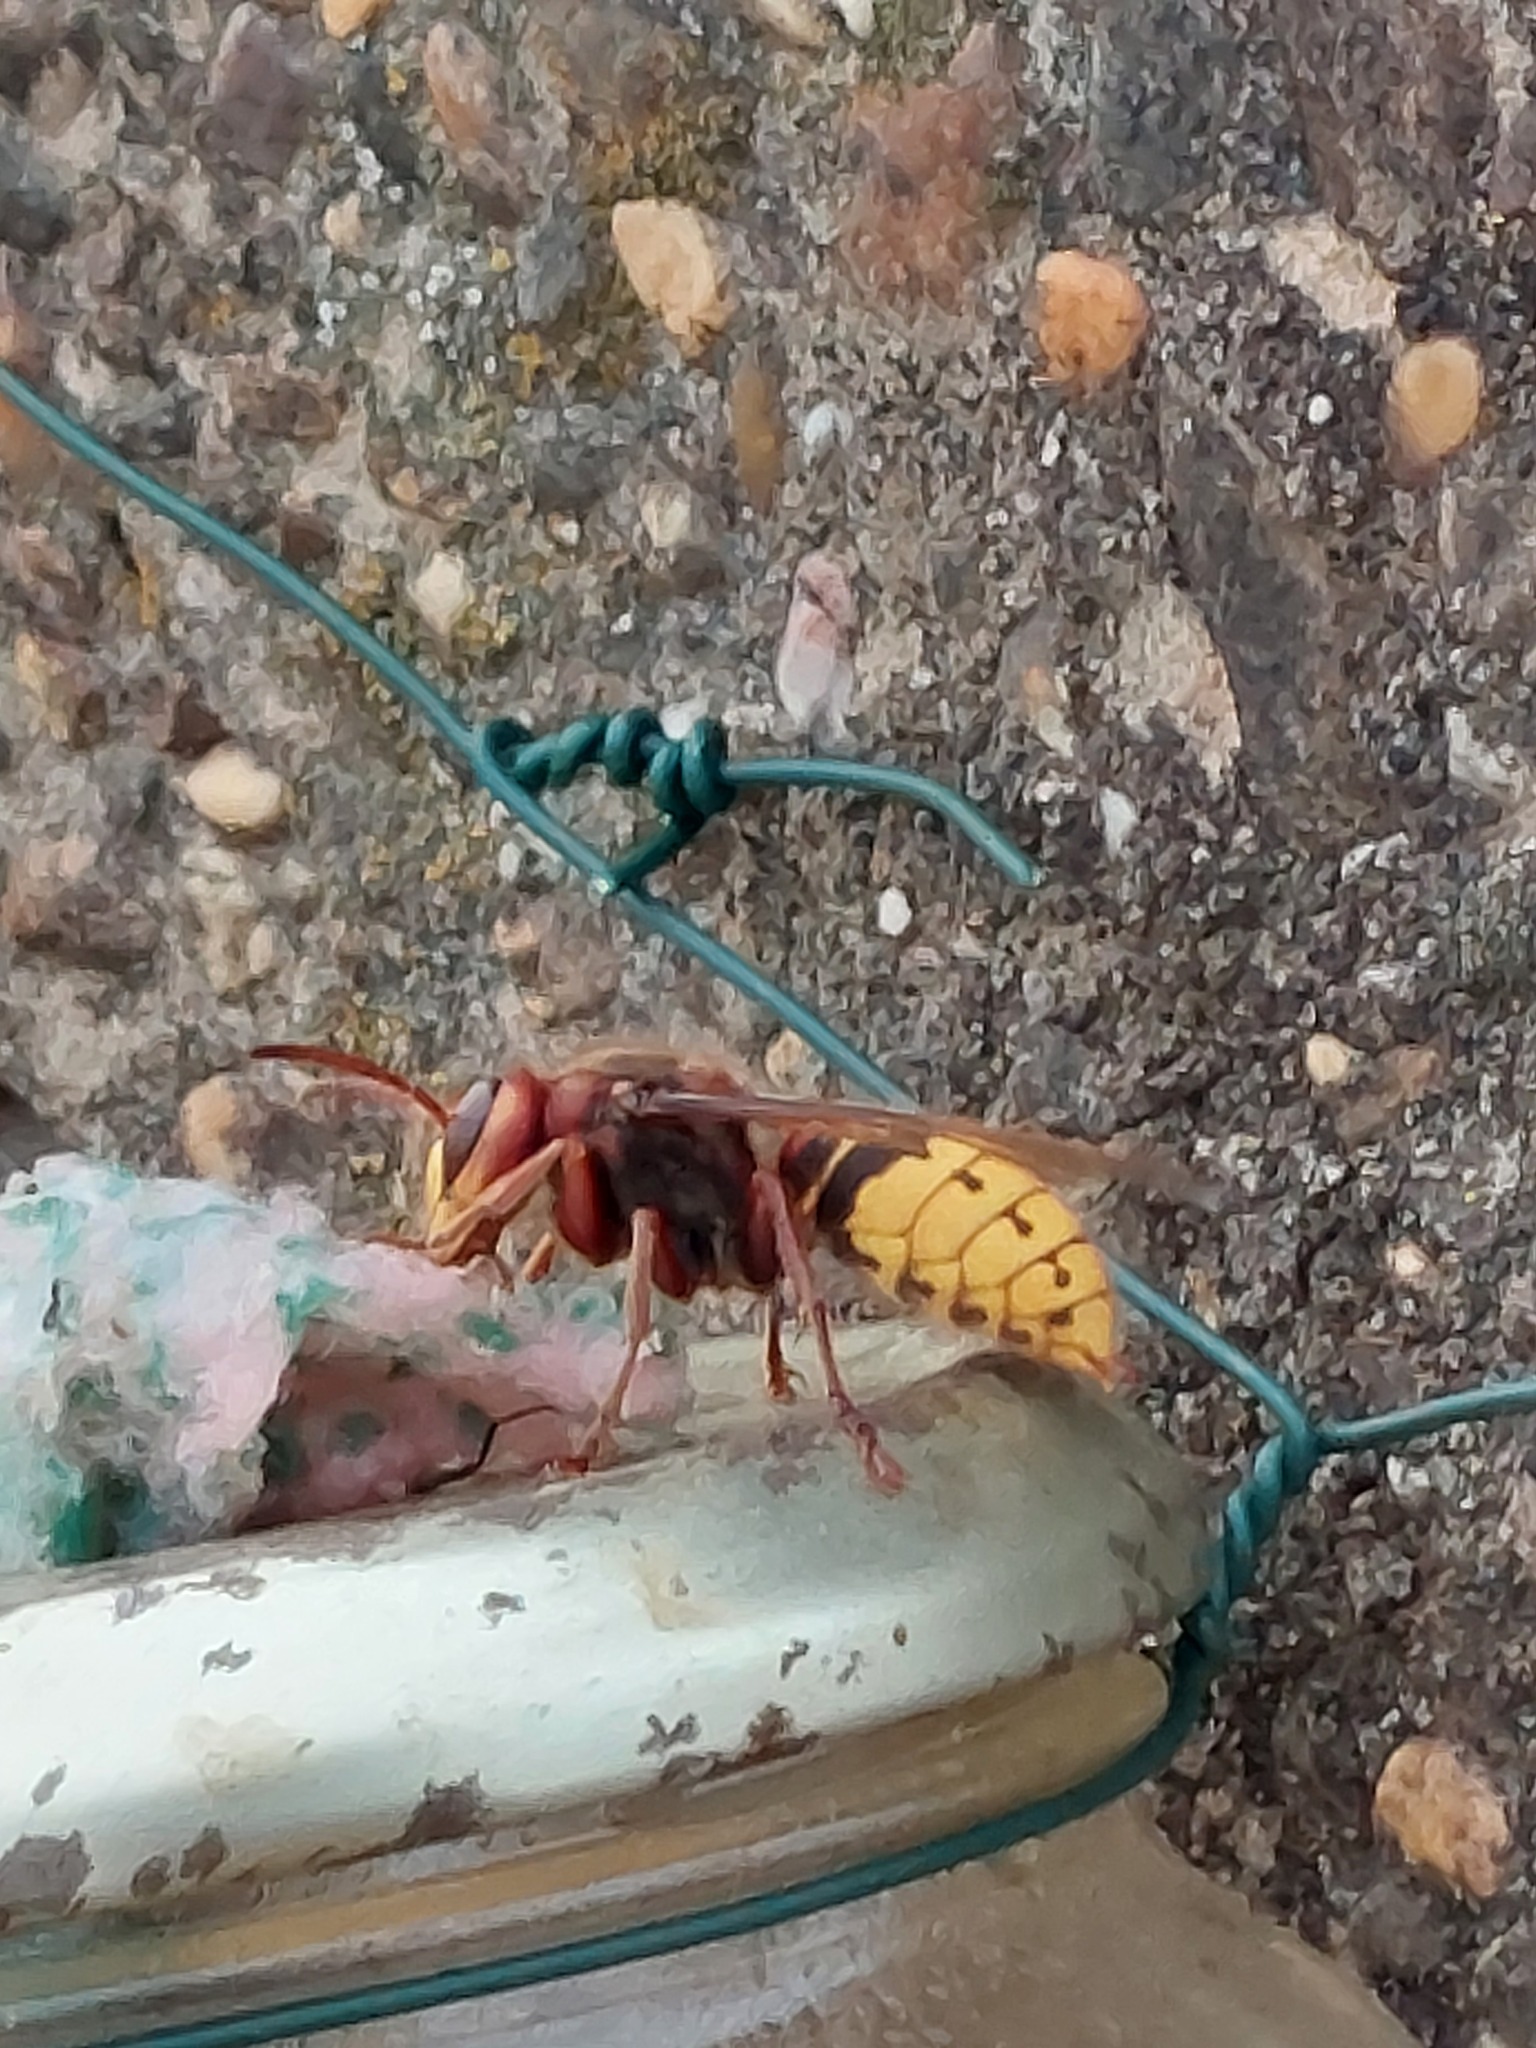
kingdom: Animalia
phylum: Arthropoda
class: Insecta
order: Hymenoptera
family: Vespidae
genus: Vespa
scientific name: Vespa crabro
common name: Hornet
